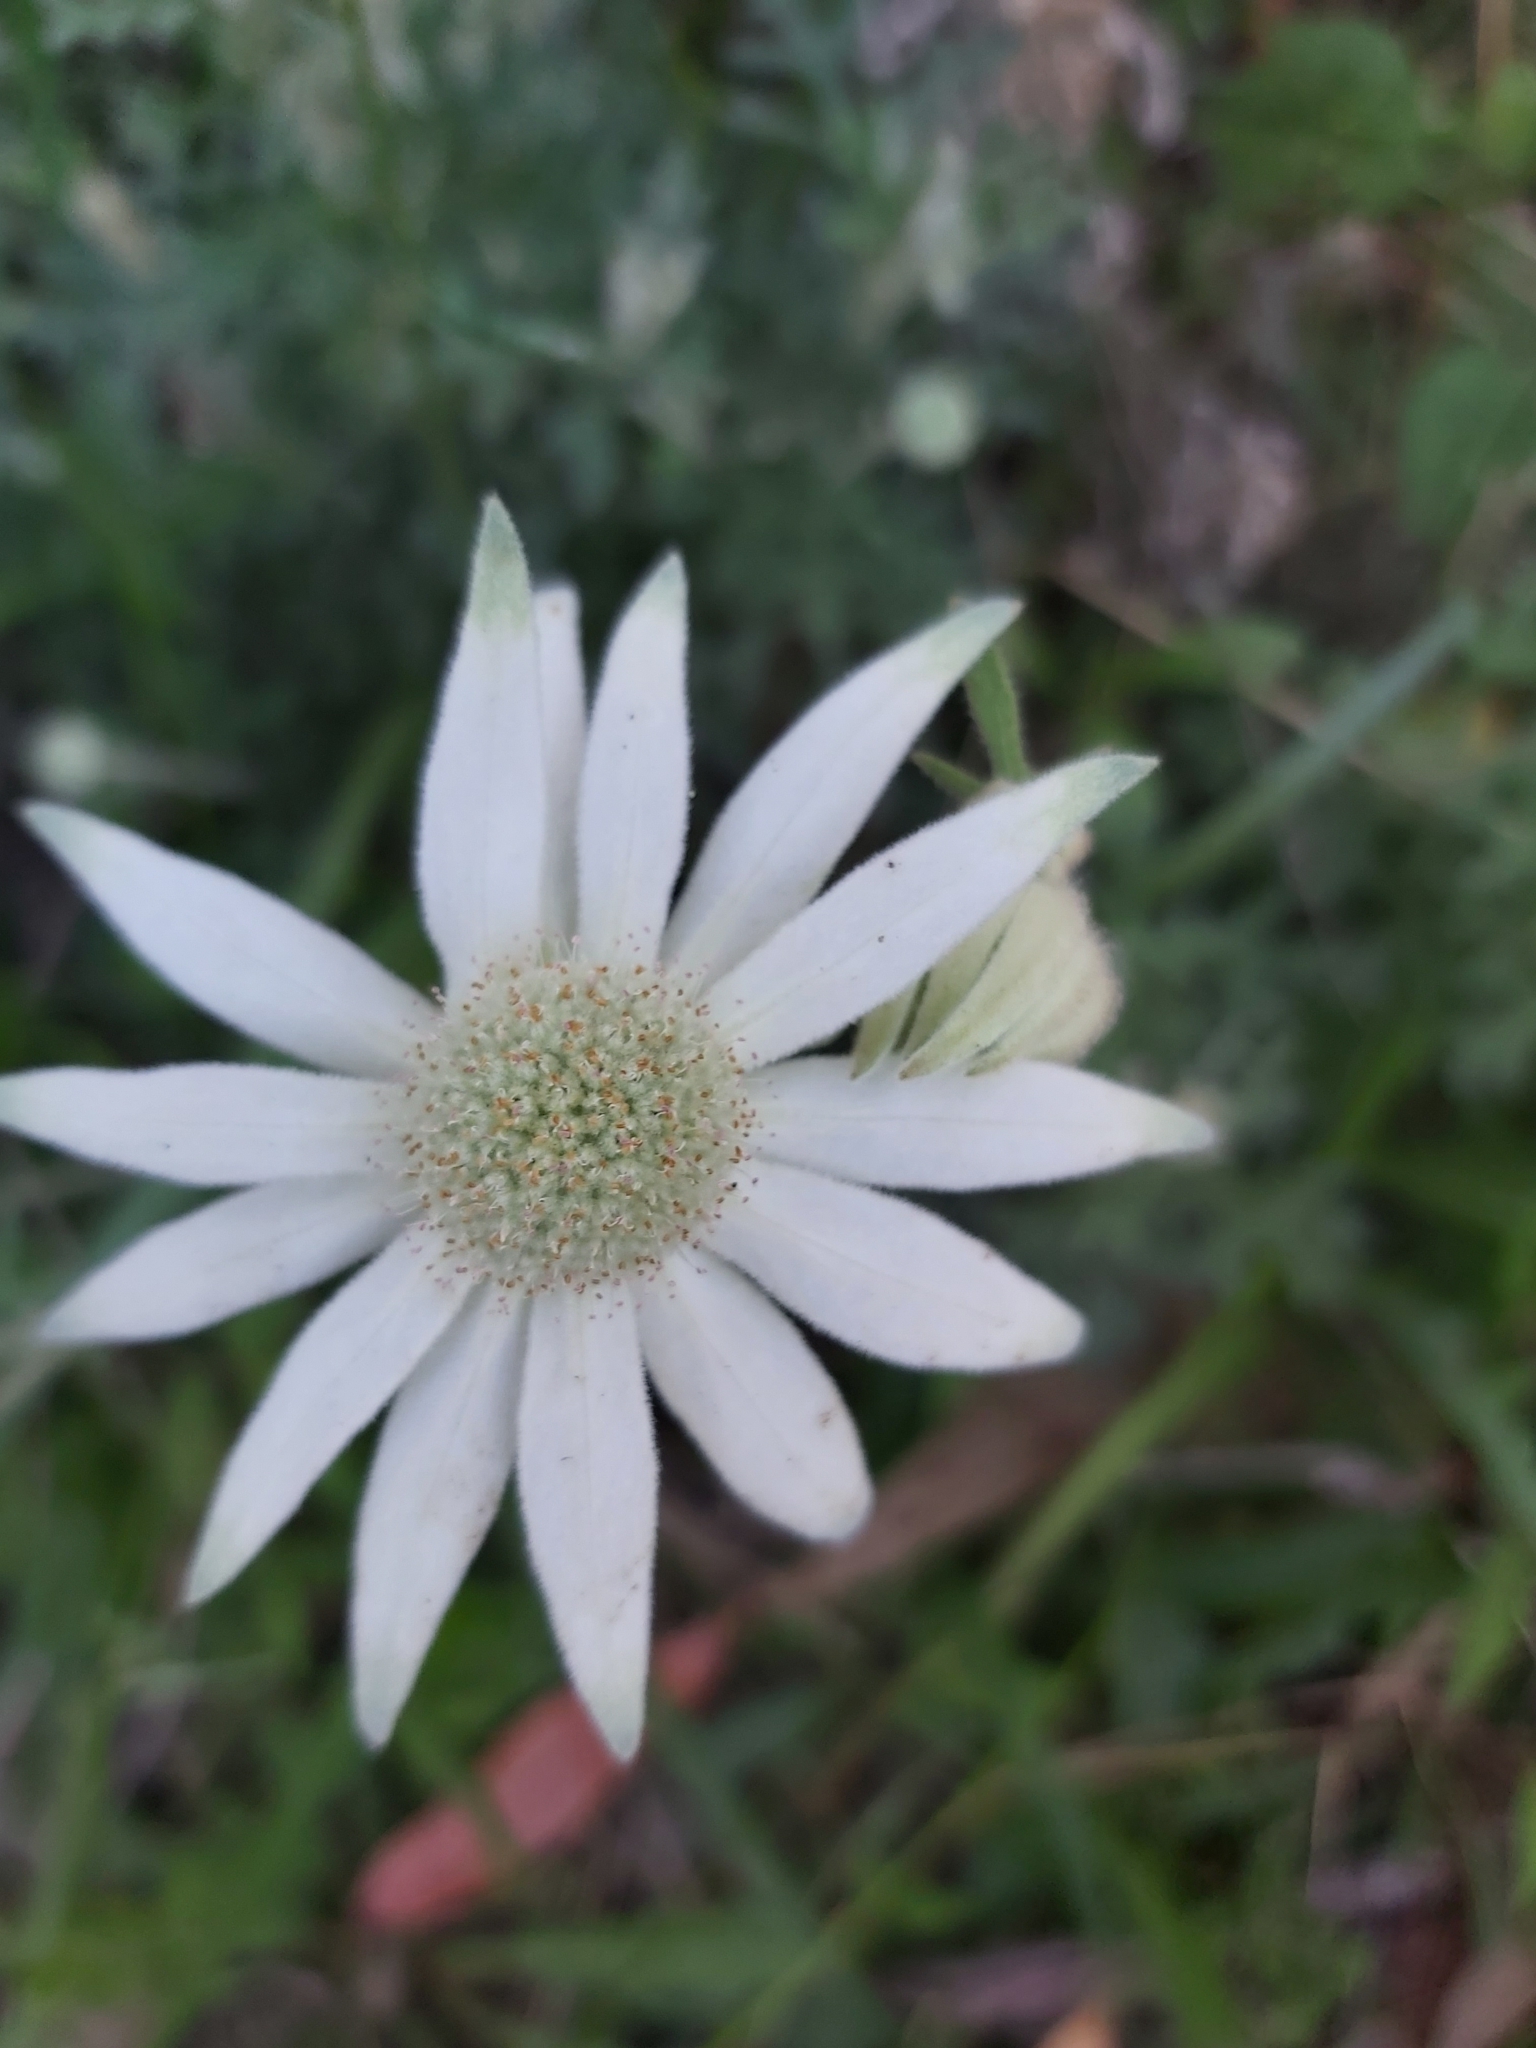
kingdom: Plantae
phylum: Tracheophyta
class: Magnoliopsida
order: Apiales
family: Apiaceae
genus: Actinotus
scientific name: Actinotus helianthi
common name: Flannel-flower
